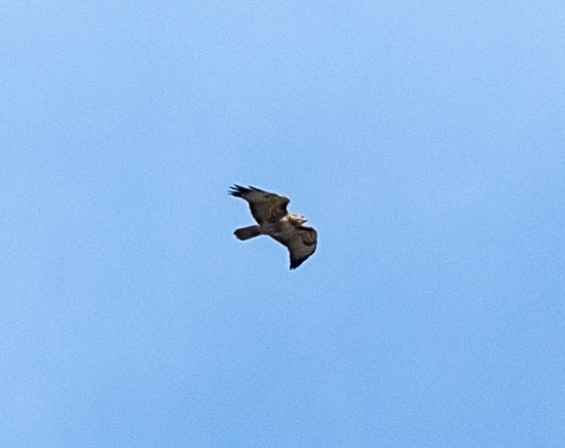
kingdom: Animalia
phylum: Chordata
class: Aves
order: Accipitriformes
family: Accipitridae
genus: Buteo
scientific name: Buteo jamaicensis
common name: Red-tailed hawk
